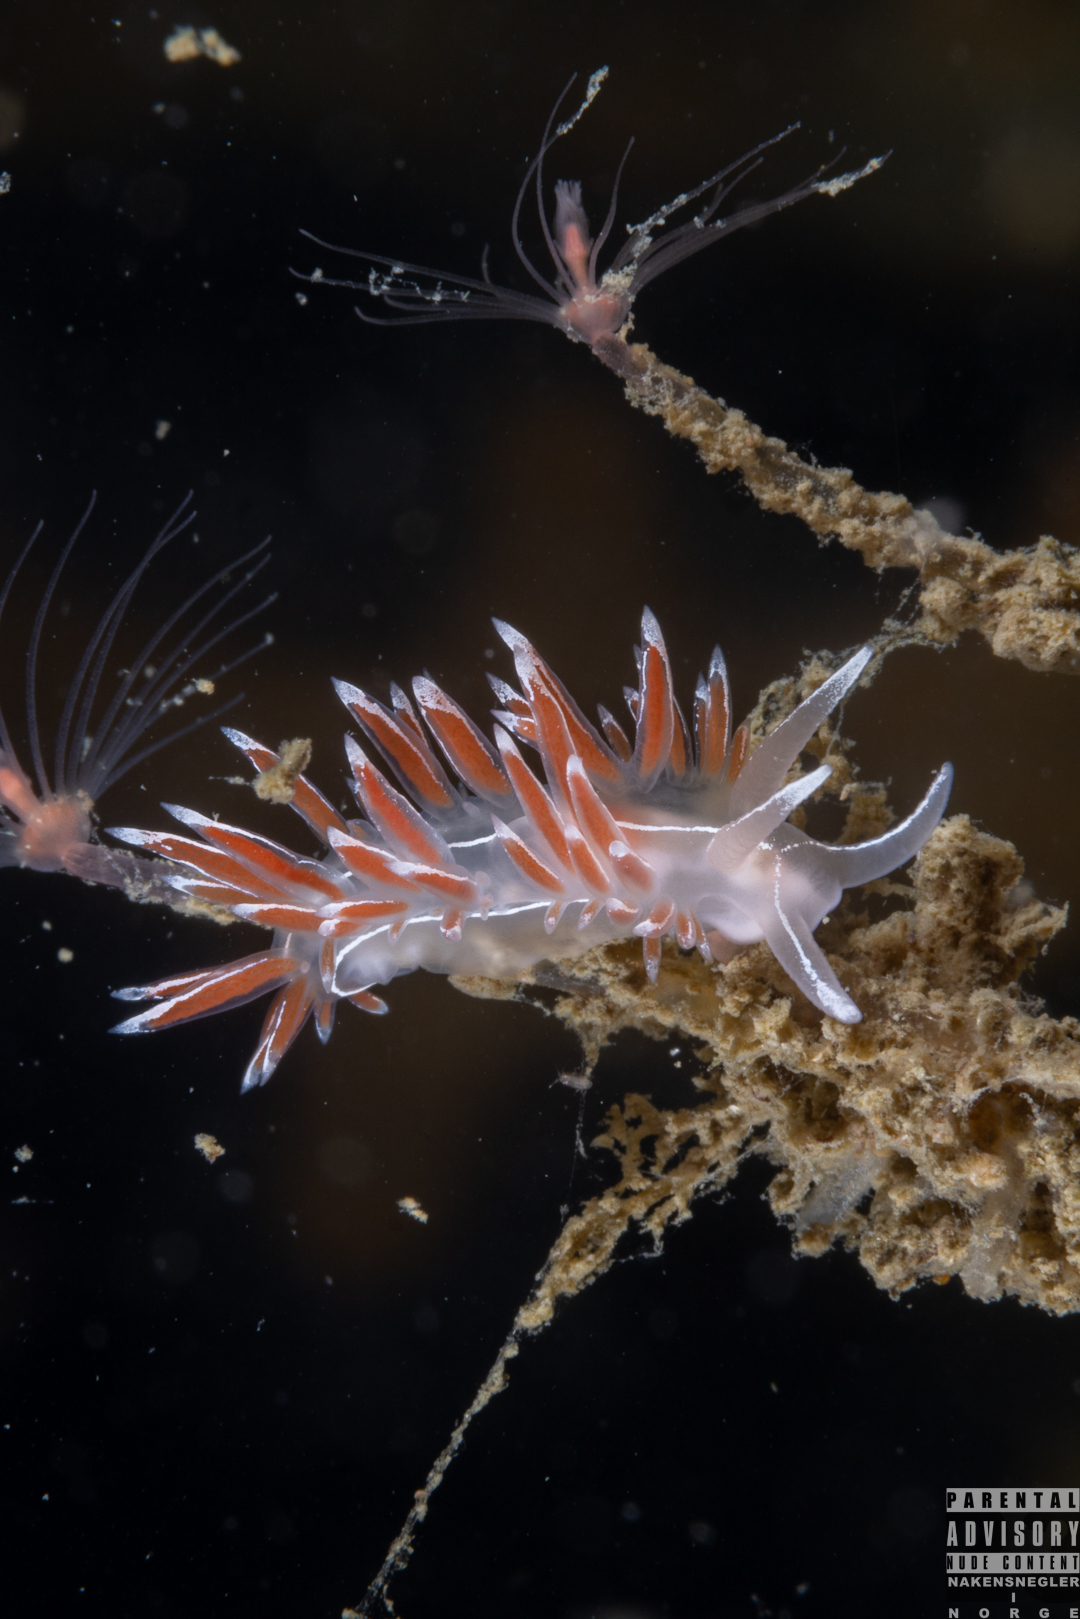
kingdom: Animalia
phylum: Mollusca
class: Gastropoda
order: Nudibranchia
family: Coryphellidae
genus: Coryphella
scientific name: Coryphella lineata
